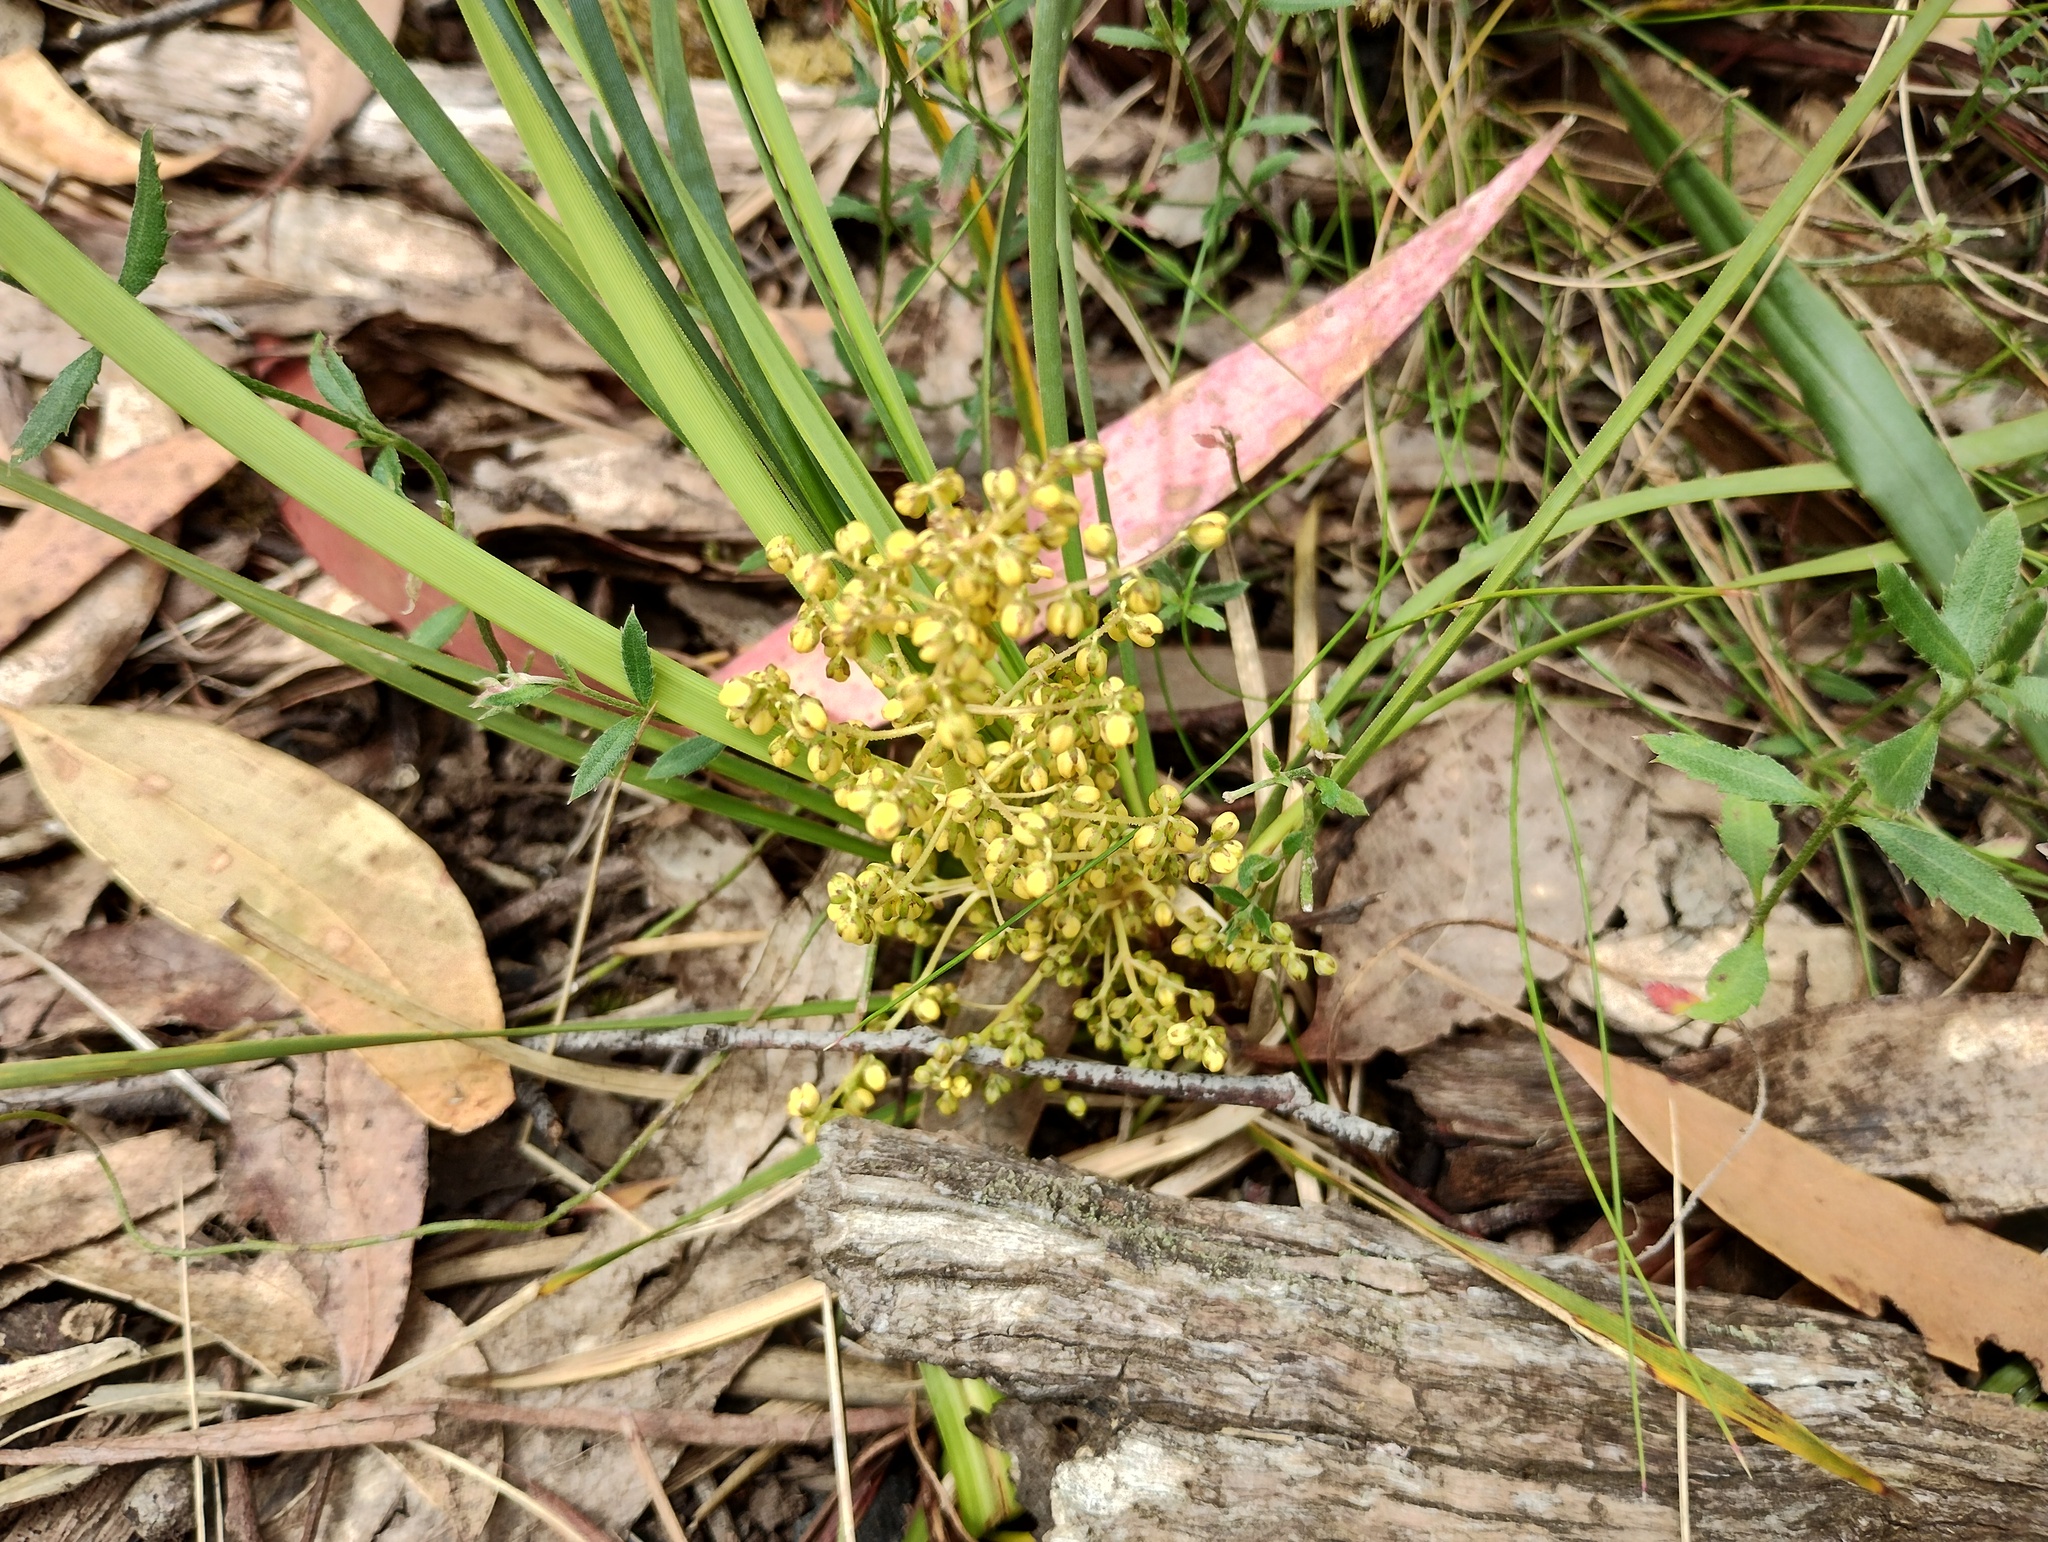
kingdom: Plantae
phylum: Tracheophyta
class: Liliopsida
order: Asparagales
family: Asparagaceae
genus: Lomandra
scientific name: Lomandra filiformis
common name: Wattle mat-rush
